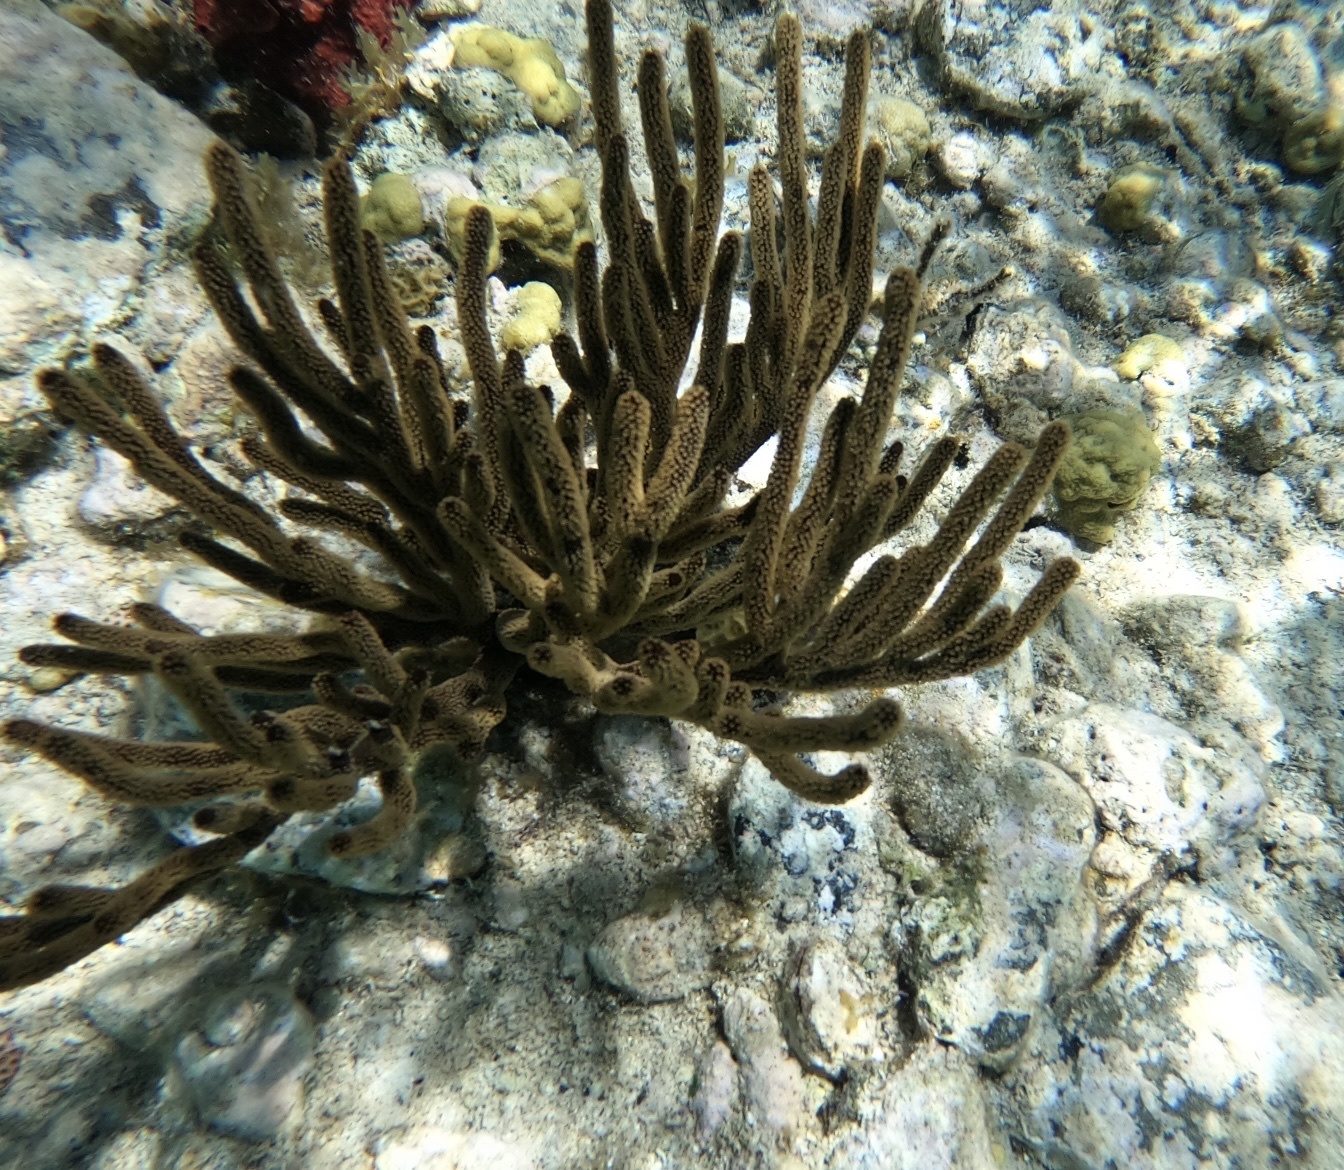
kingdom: Animalia
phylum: Cnidaria
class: Anthozoa
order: Malacalcyonacea
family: Plexauridae
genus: Plexaura
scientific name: Plexaura homomalla
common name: Black sea rod
